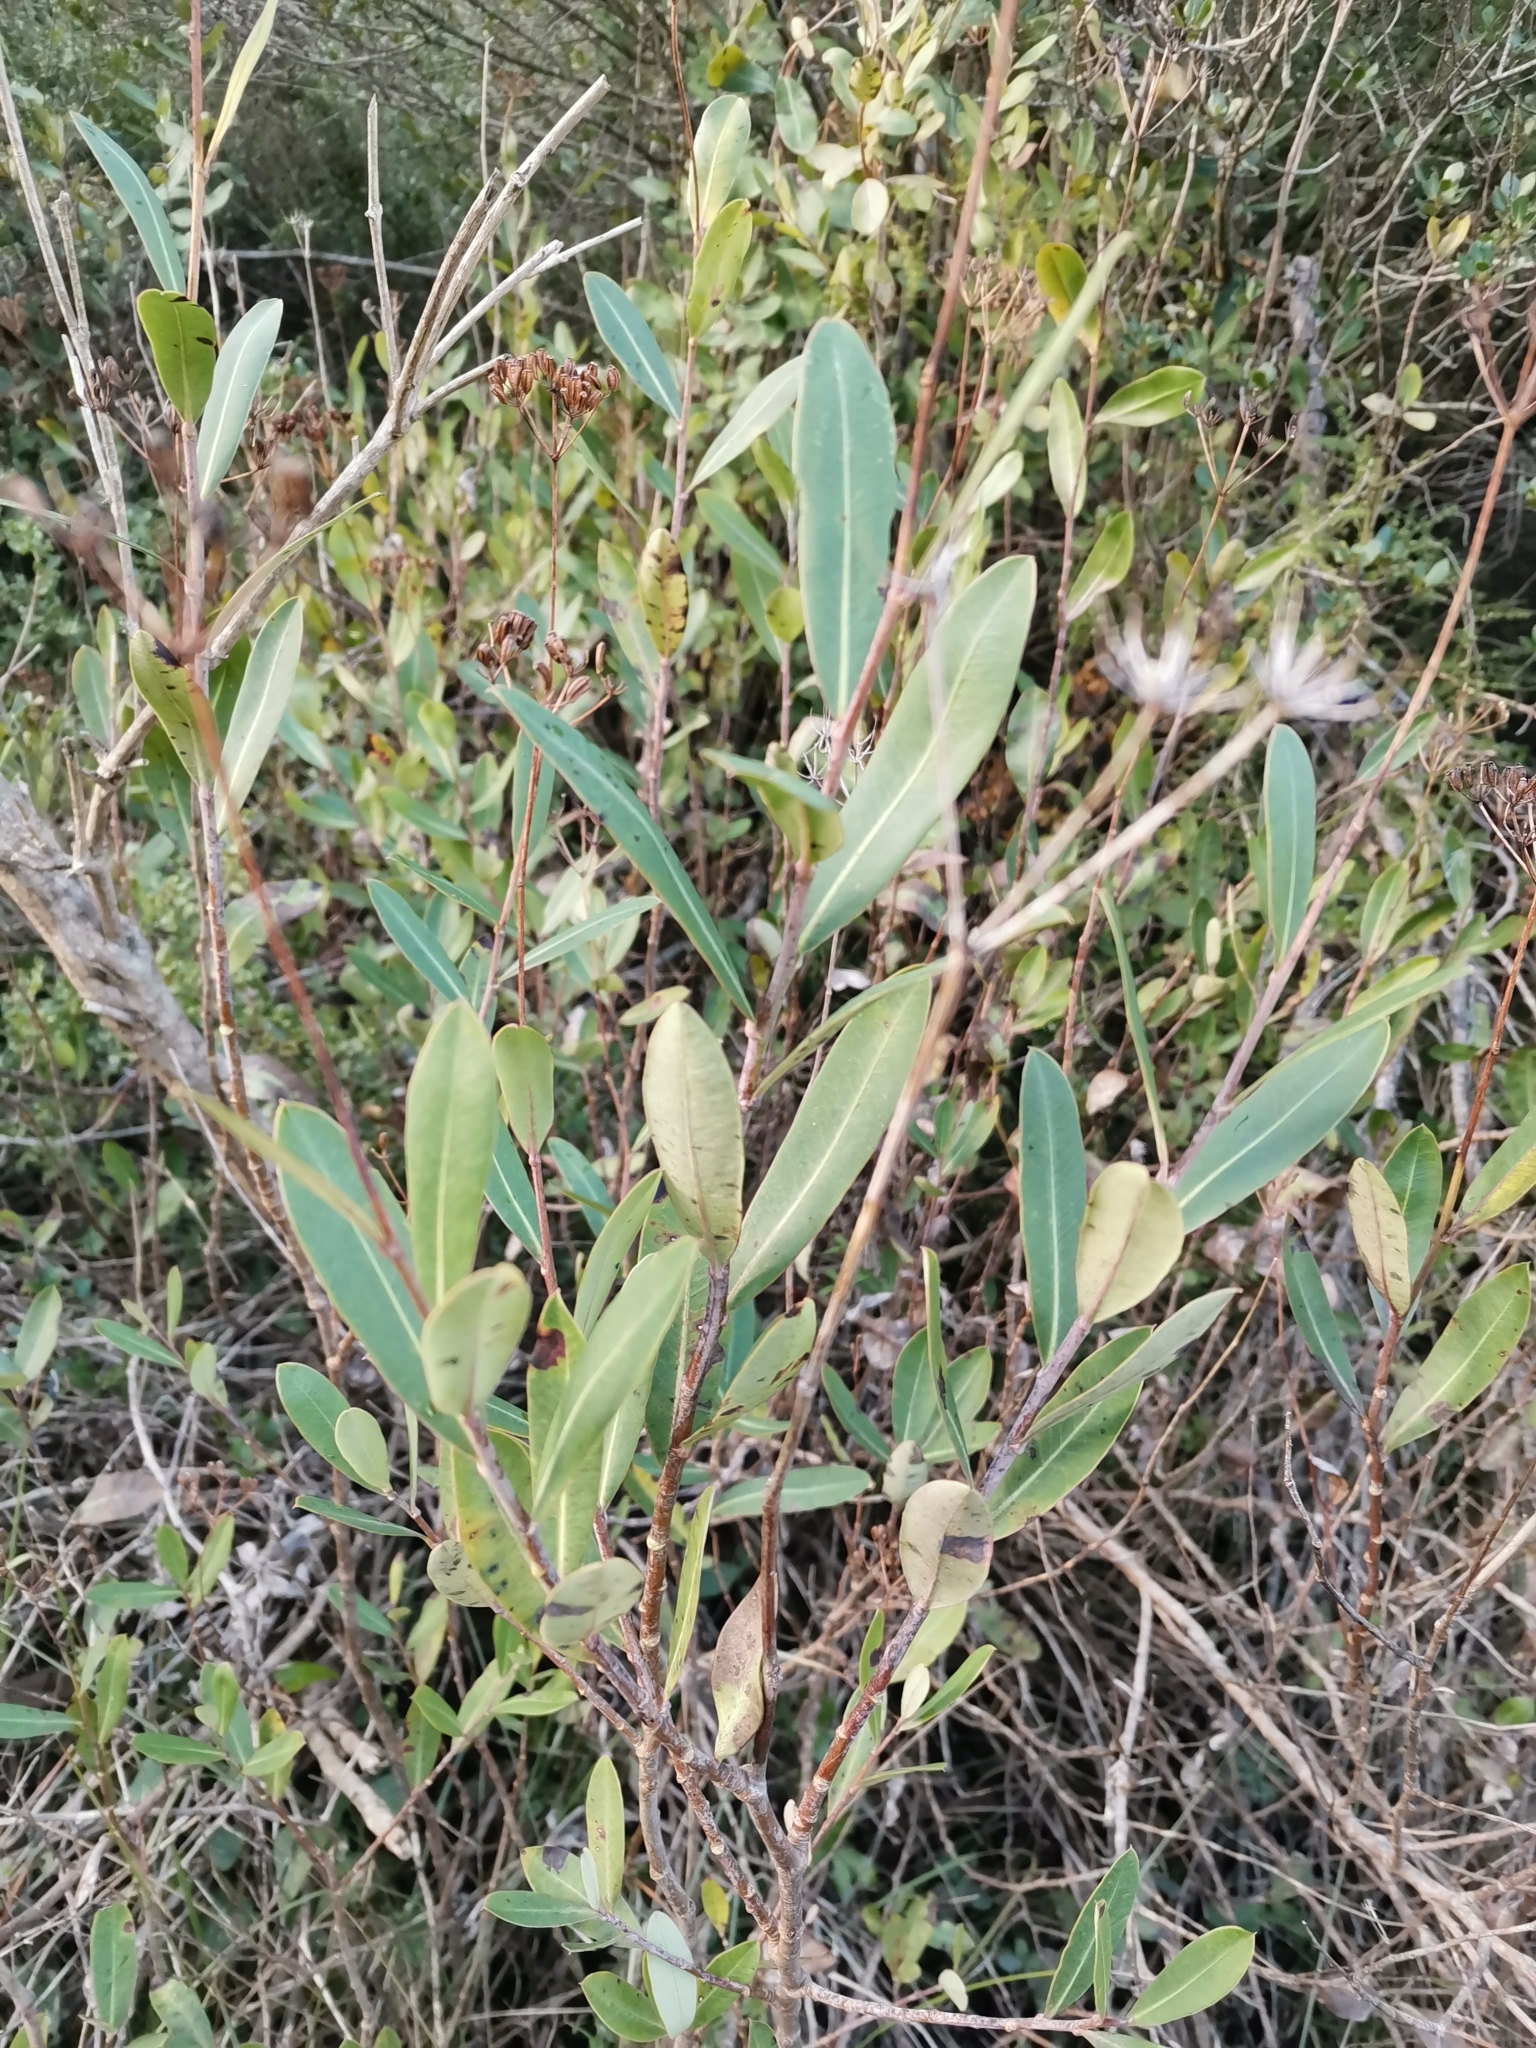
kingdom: Plantae
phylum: Tracheophyta
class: Magnoliopsida
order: Apiales
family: Apiaceae
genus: Bupleurum
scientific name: Bupleurum fruticosum
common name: Shrubby hare's-ear
